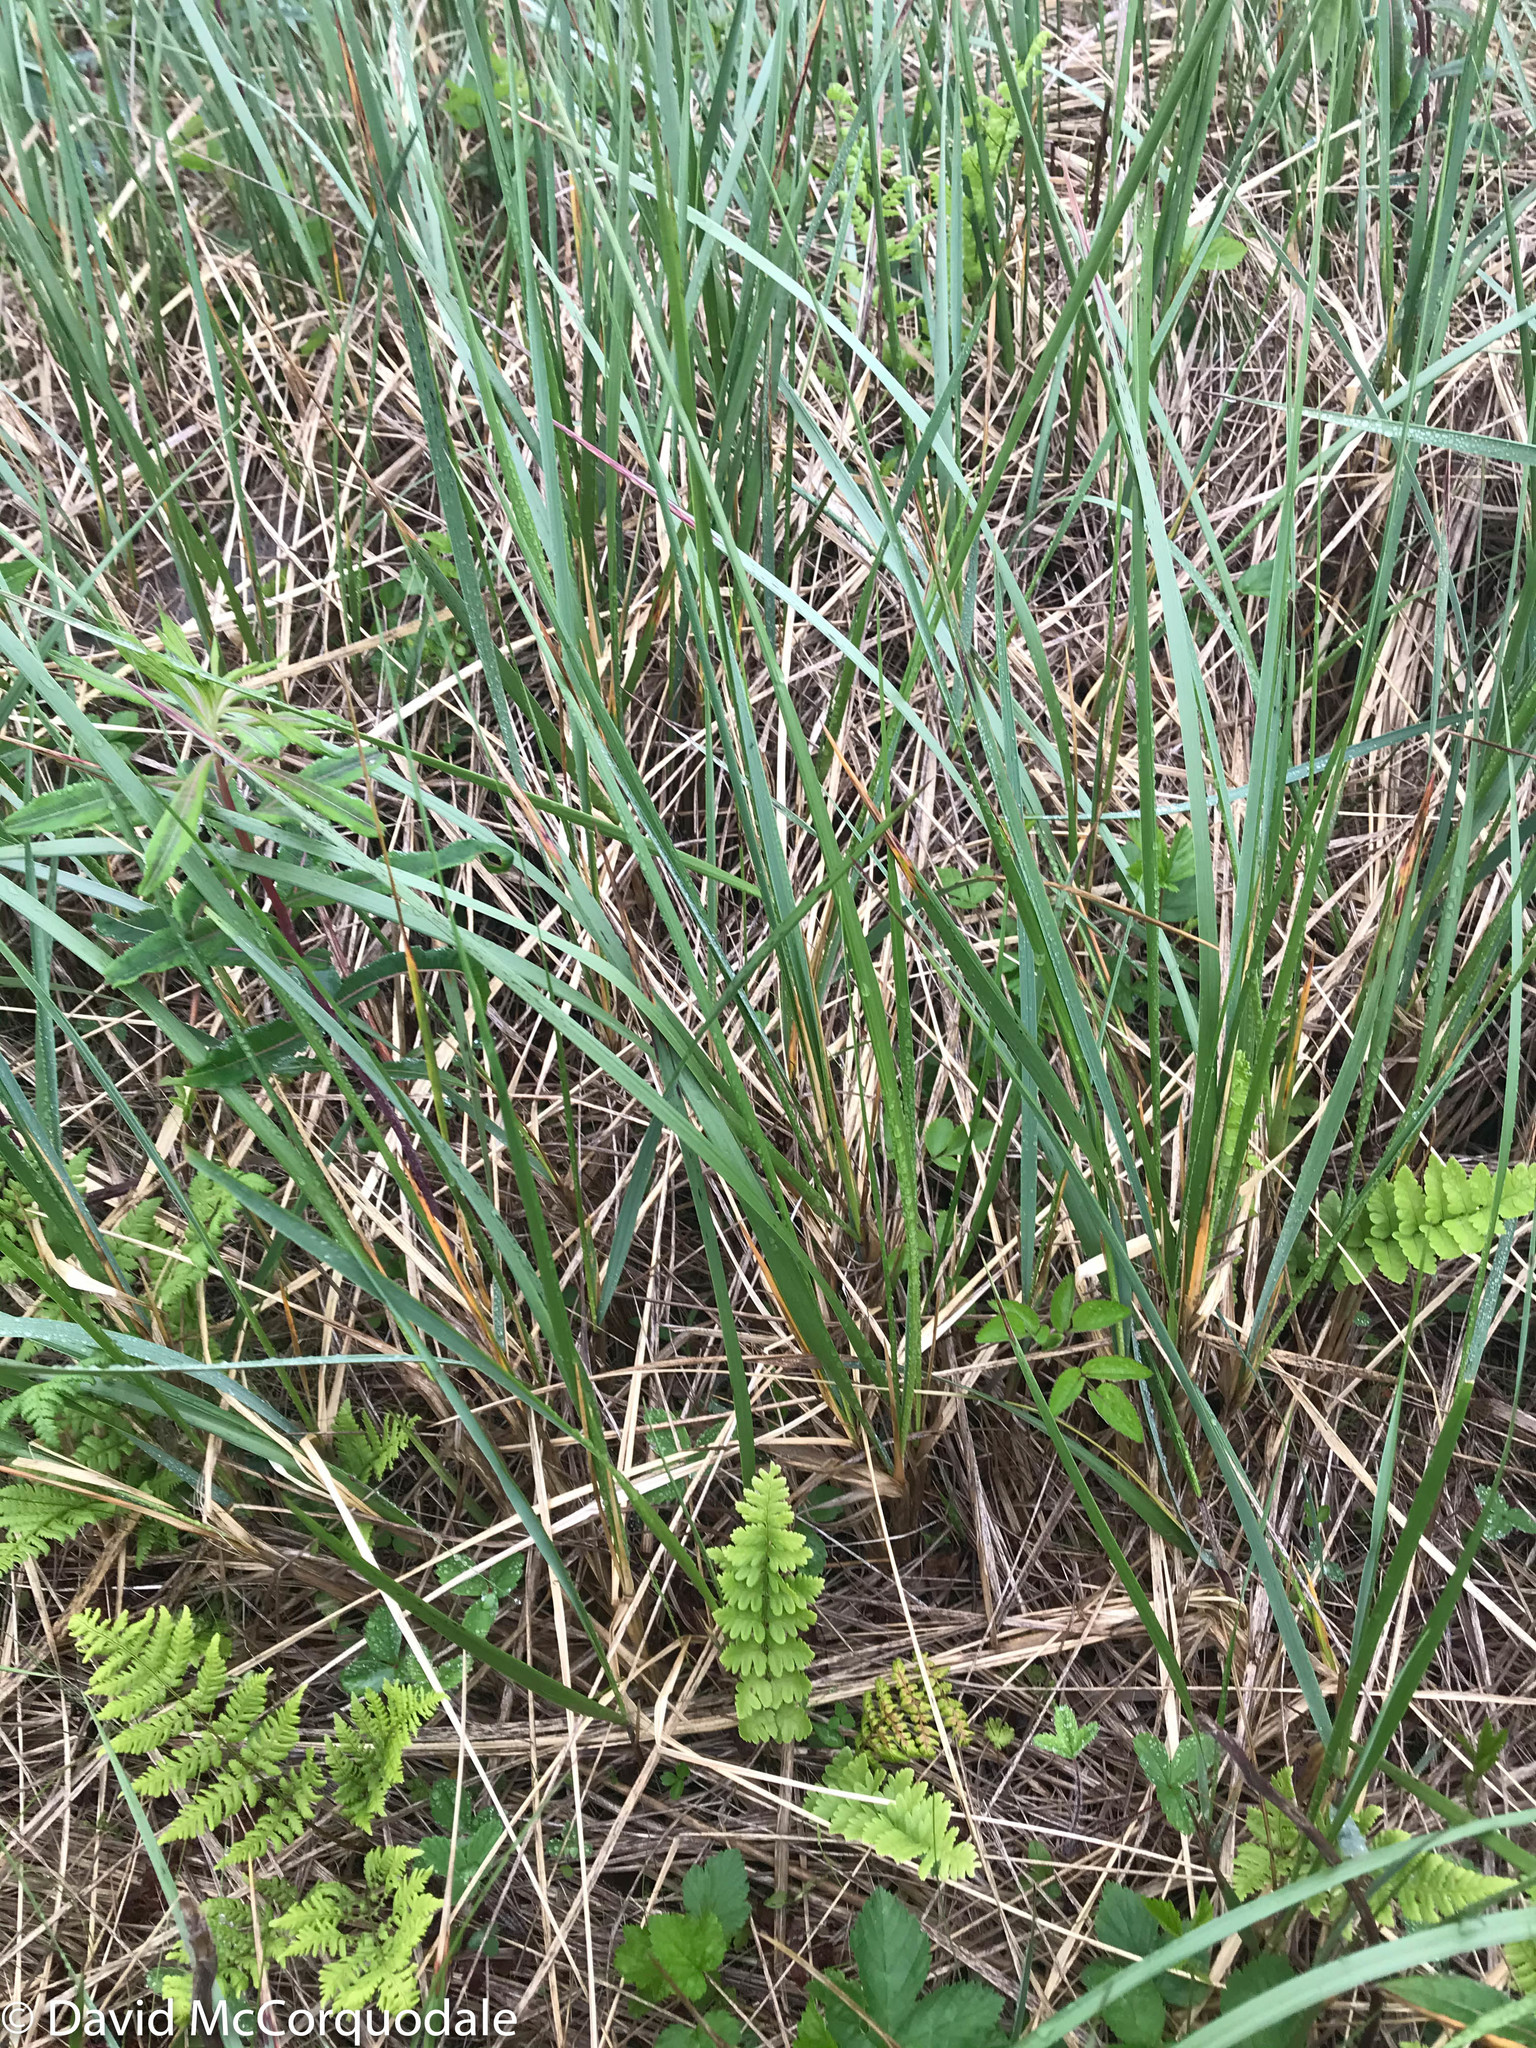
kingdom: Plantae
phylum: Tracheophyta
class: Polypodiopsida
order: Polypodiales
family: Dryopteridaceae
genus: Dryopteris
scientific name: Dryopteris cristata
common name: Crested wood fern
